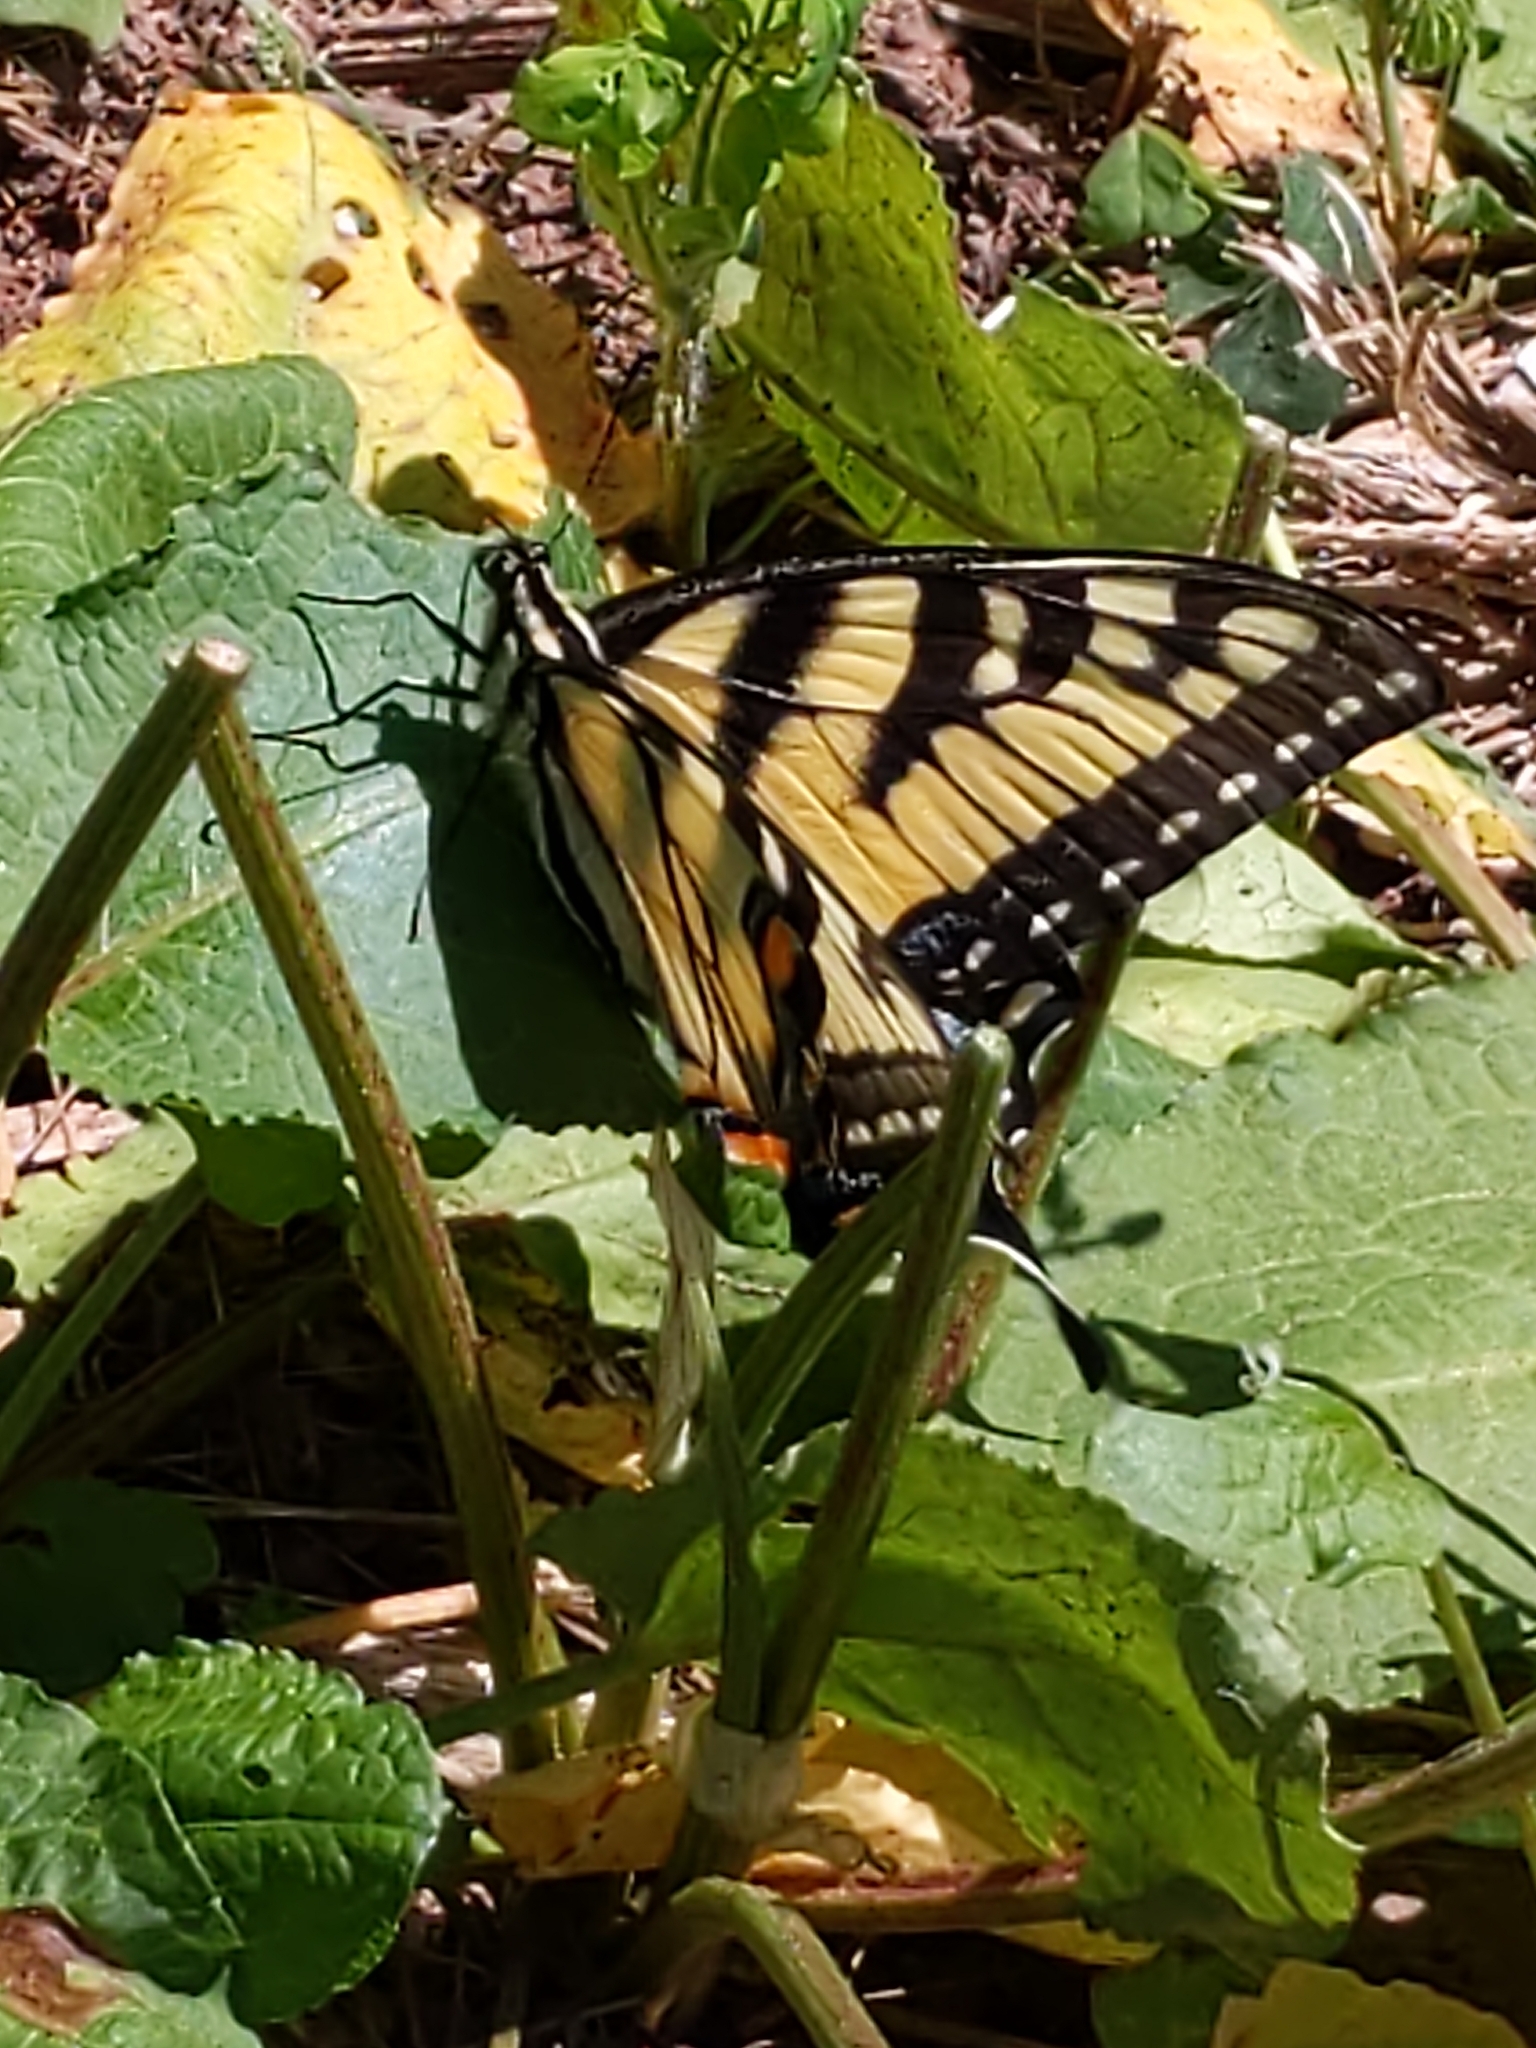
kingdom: Animalia
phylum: Arthropoda
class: Insecta
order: Lepidoptera
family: Papilionidae
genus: Papilio
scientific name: Papilio glaucus
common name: Tiger swallowtail
